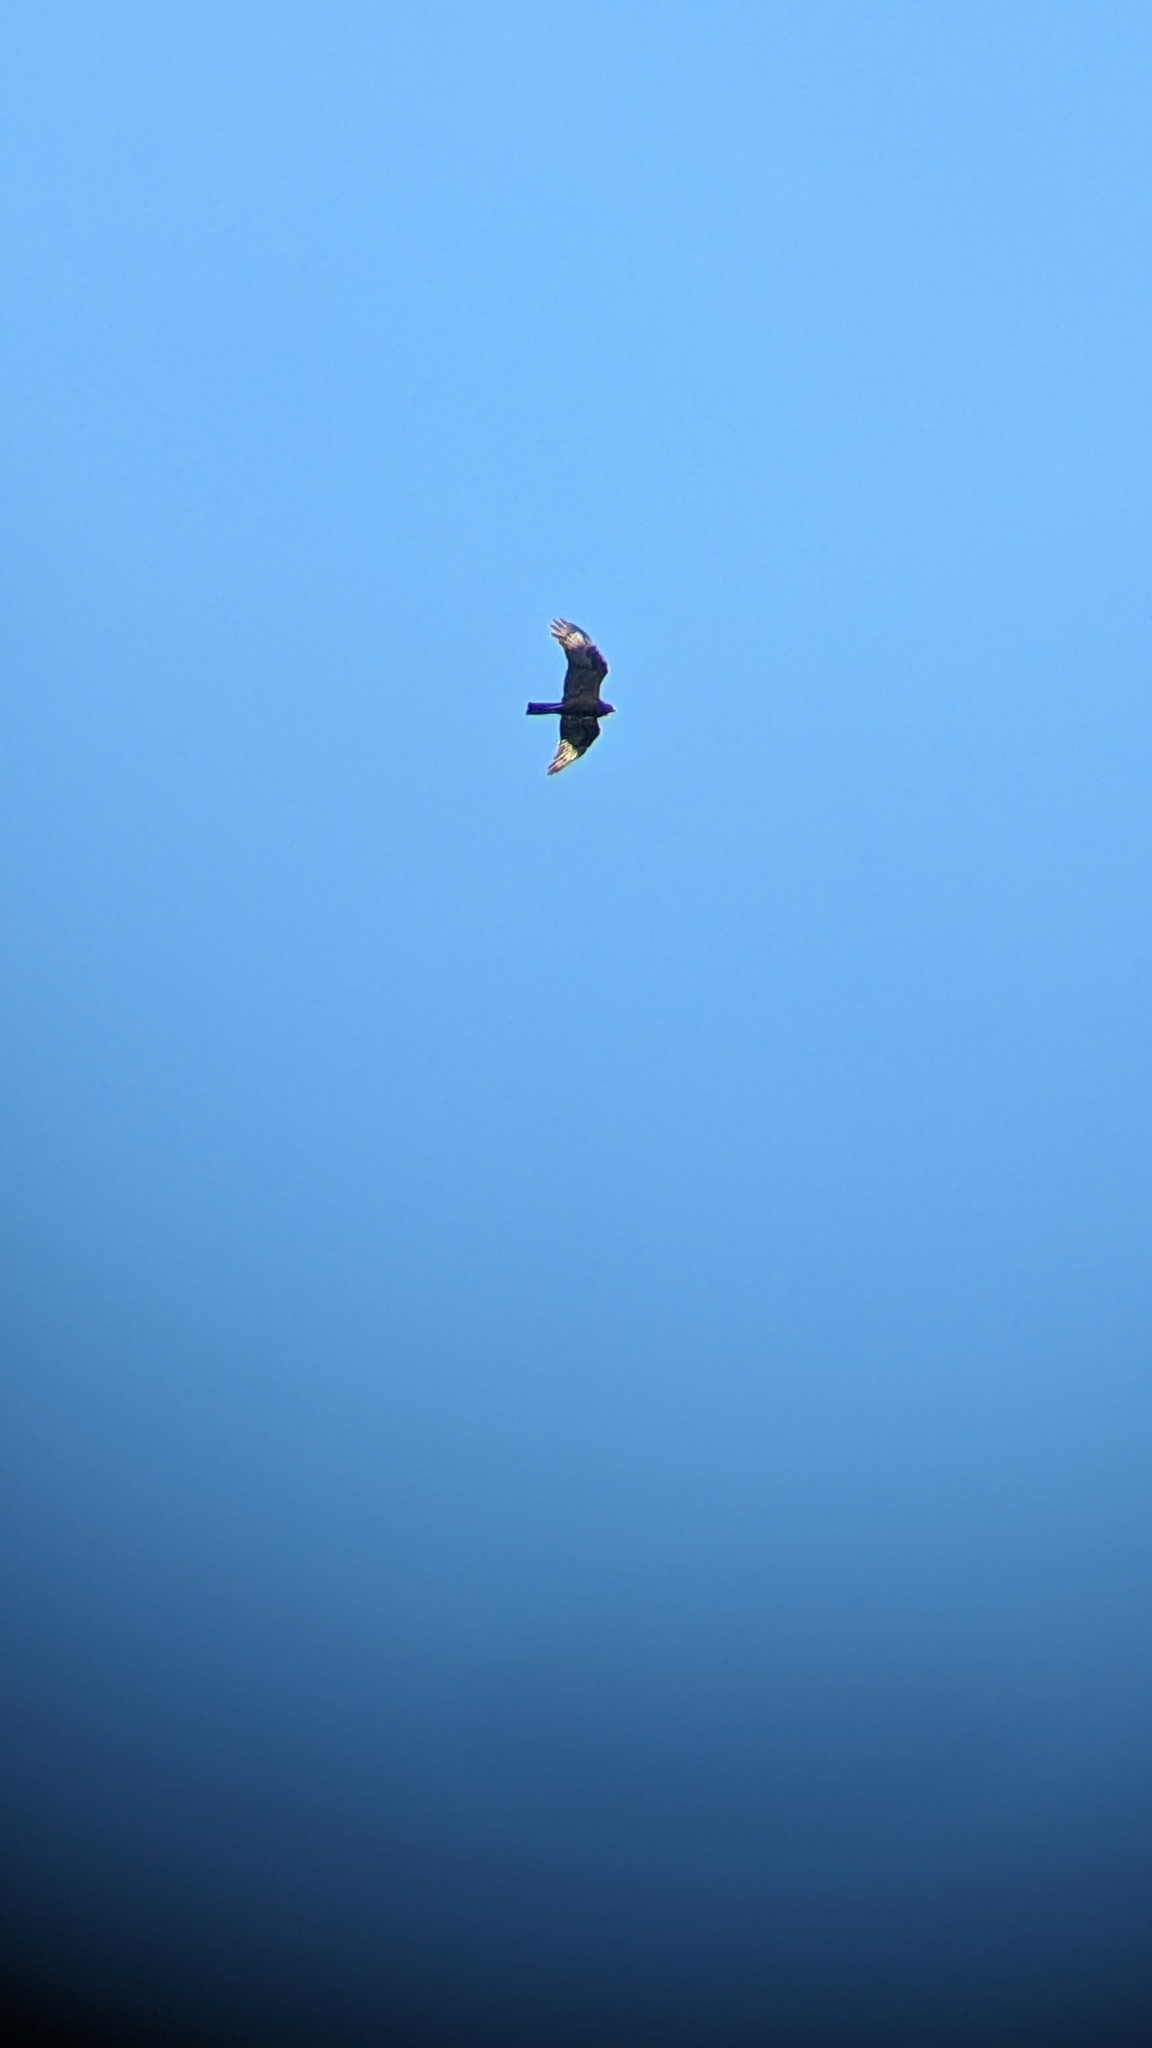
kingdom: Animalia
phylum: Chordata
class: Aves
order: Accipitriformes
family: Accipitridae
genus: Circus
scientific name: Circus approximans
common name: Swamp harrier
